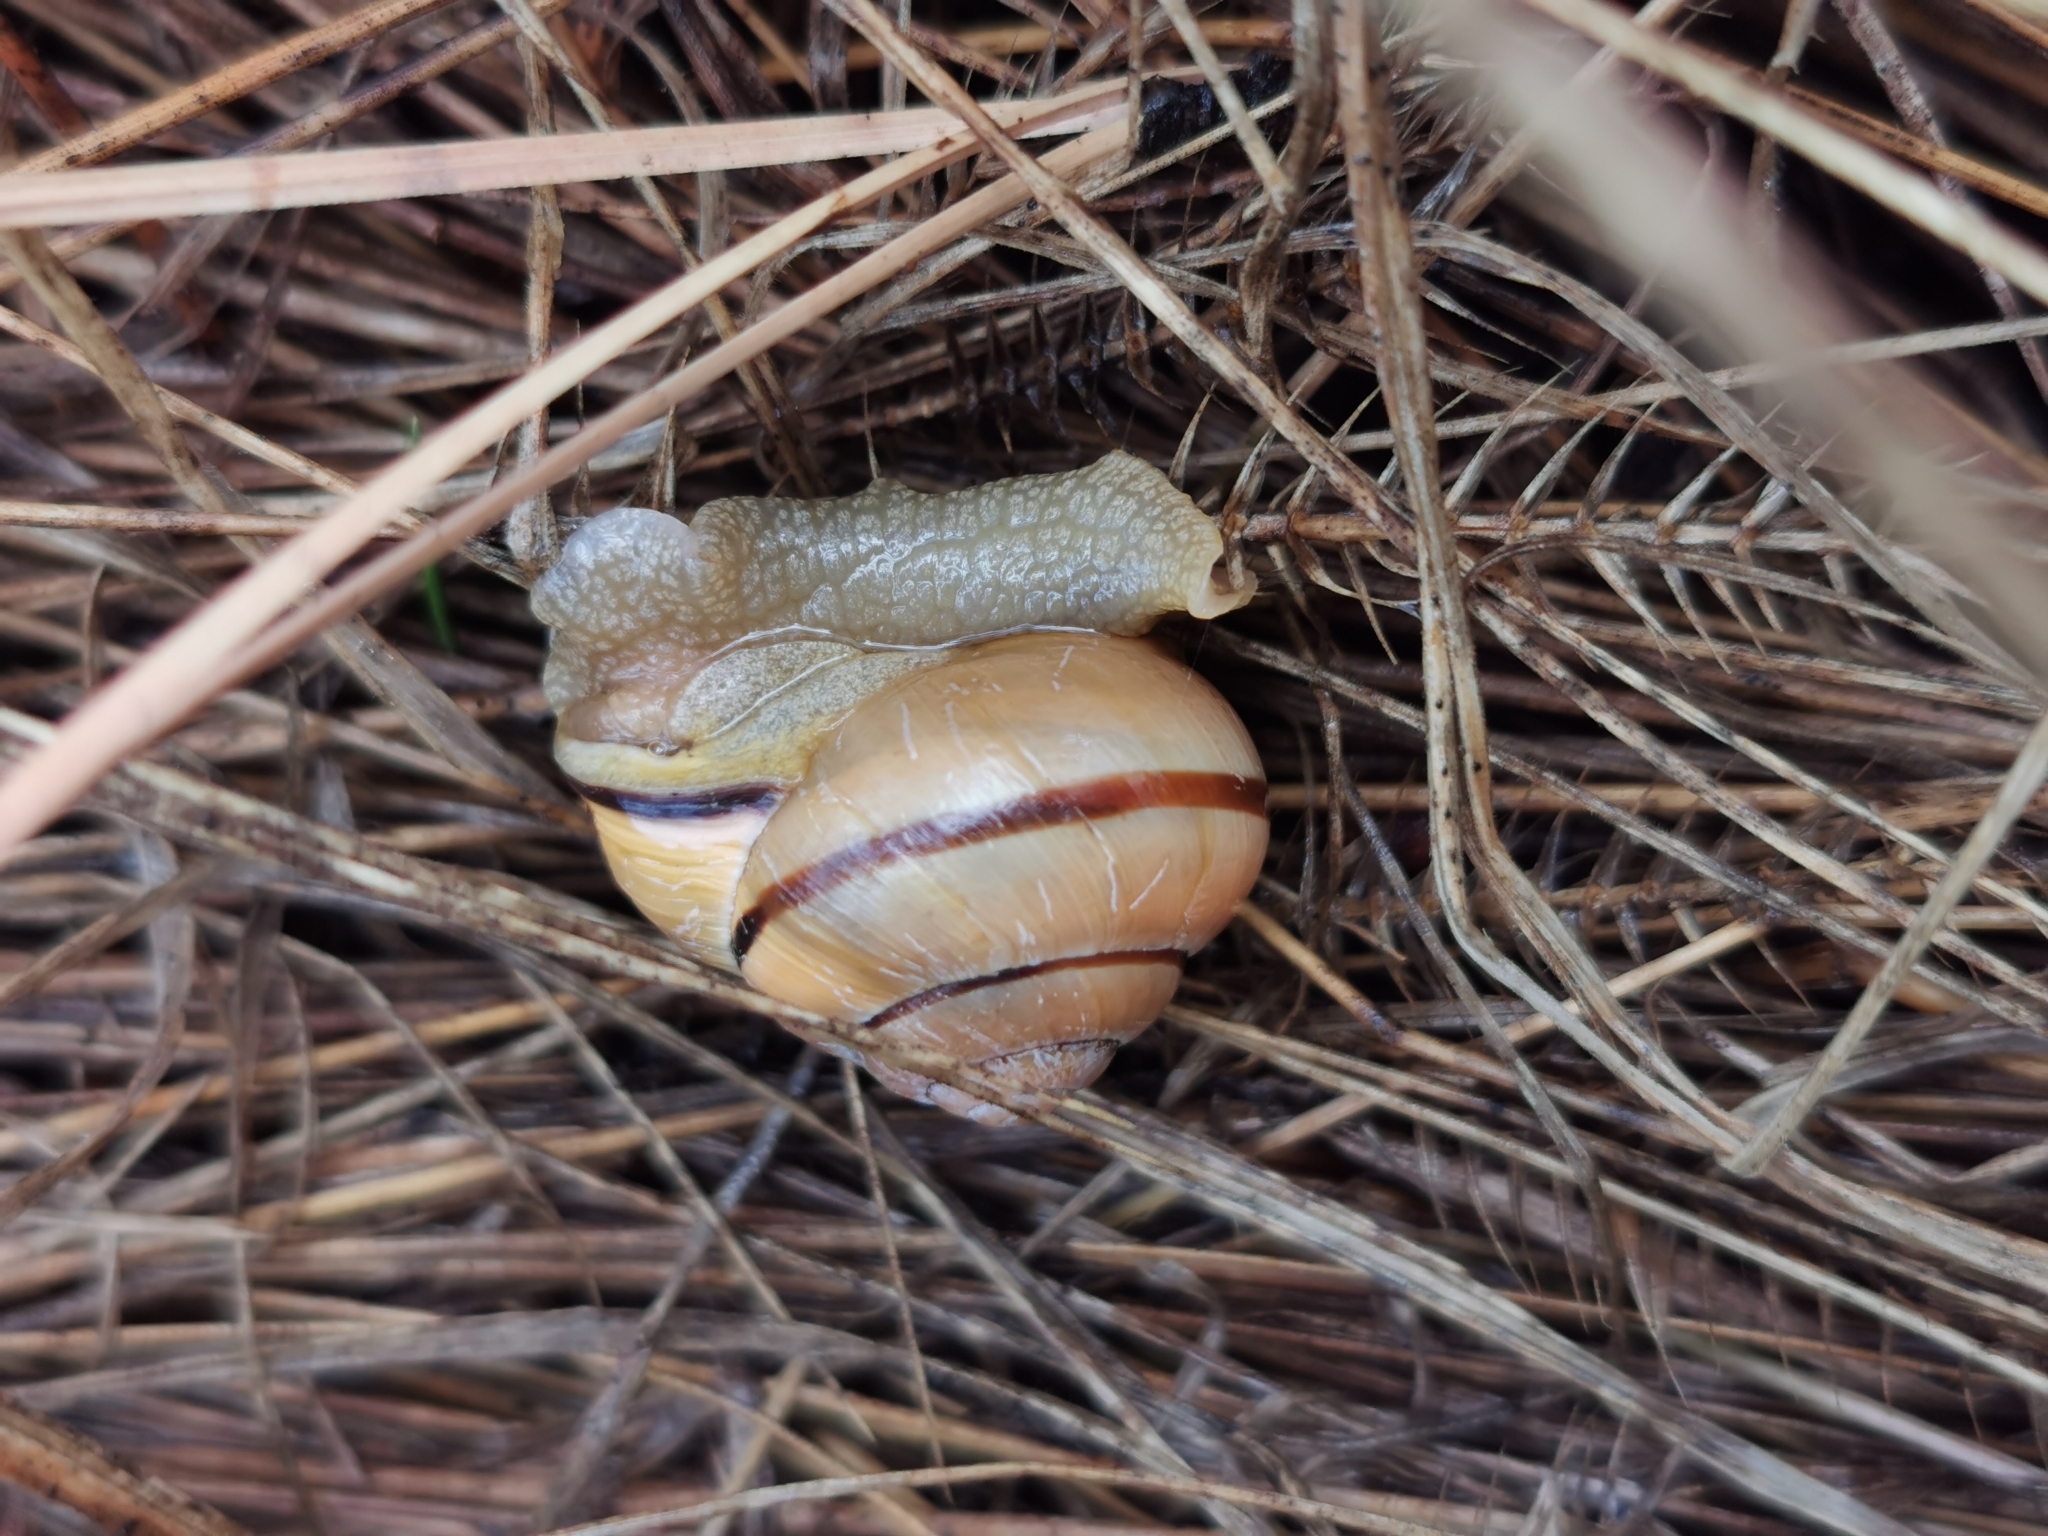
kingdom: Animalia
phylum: Mollusca
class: Gastropoda
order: Stylommatophora
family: Helicidae
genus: Cepaea
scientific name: Cepaea nemoralis
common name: Grovesnail
